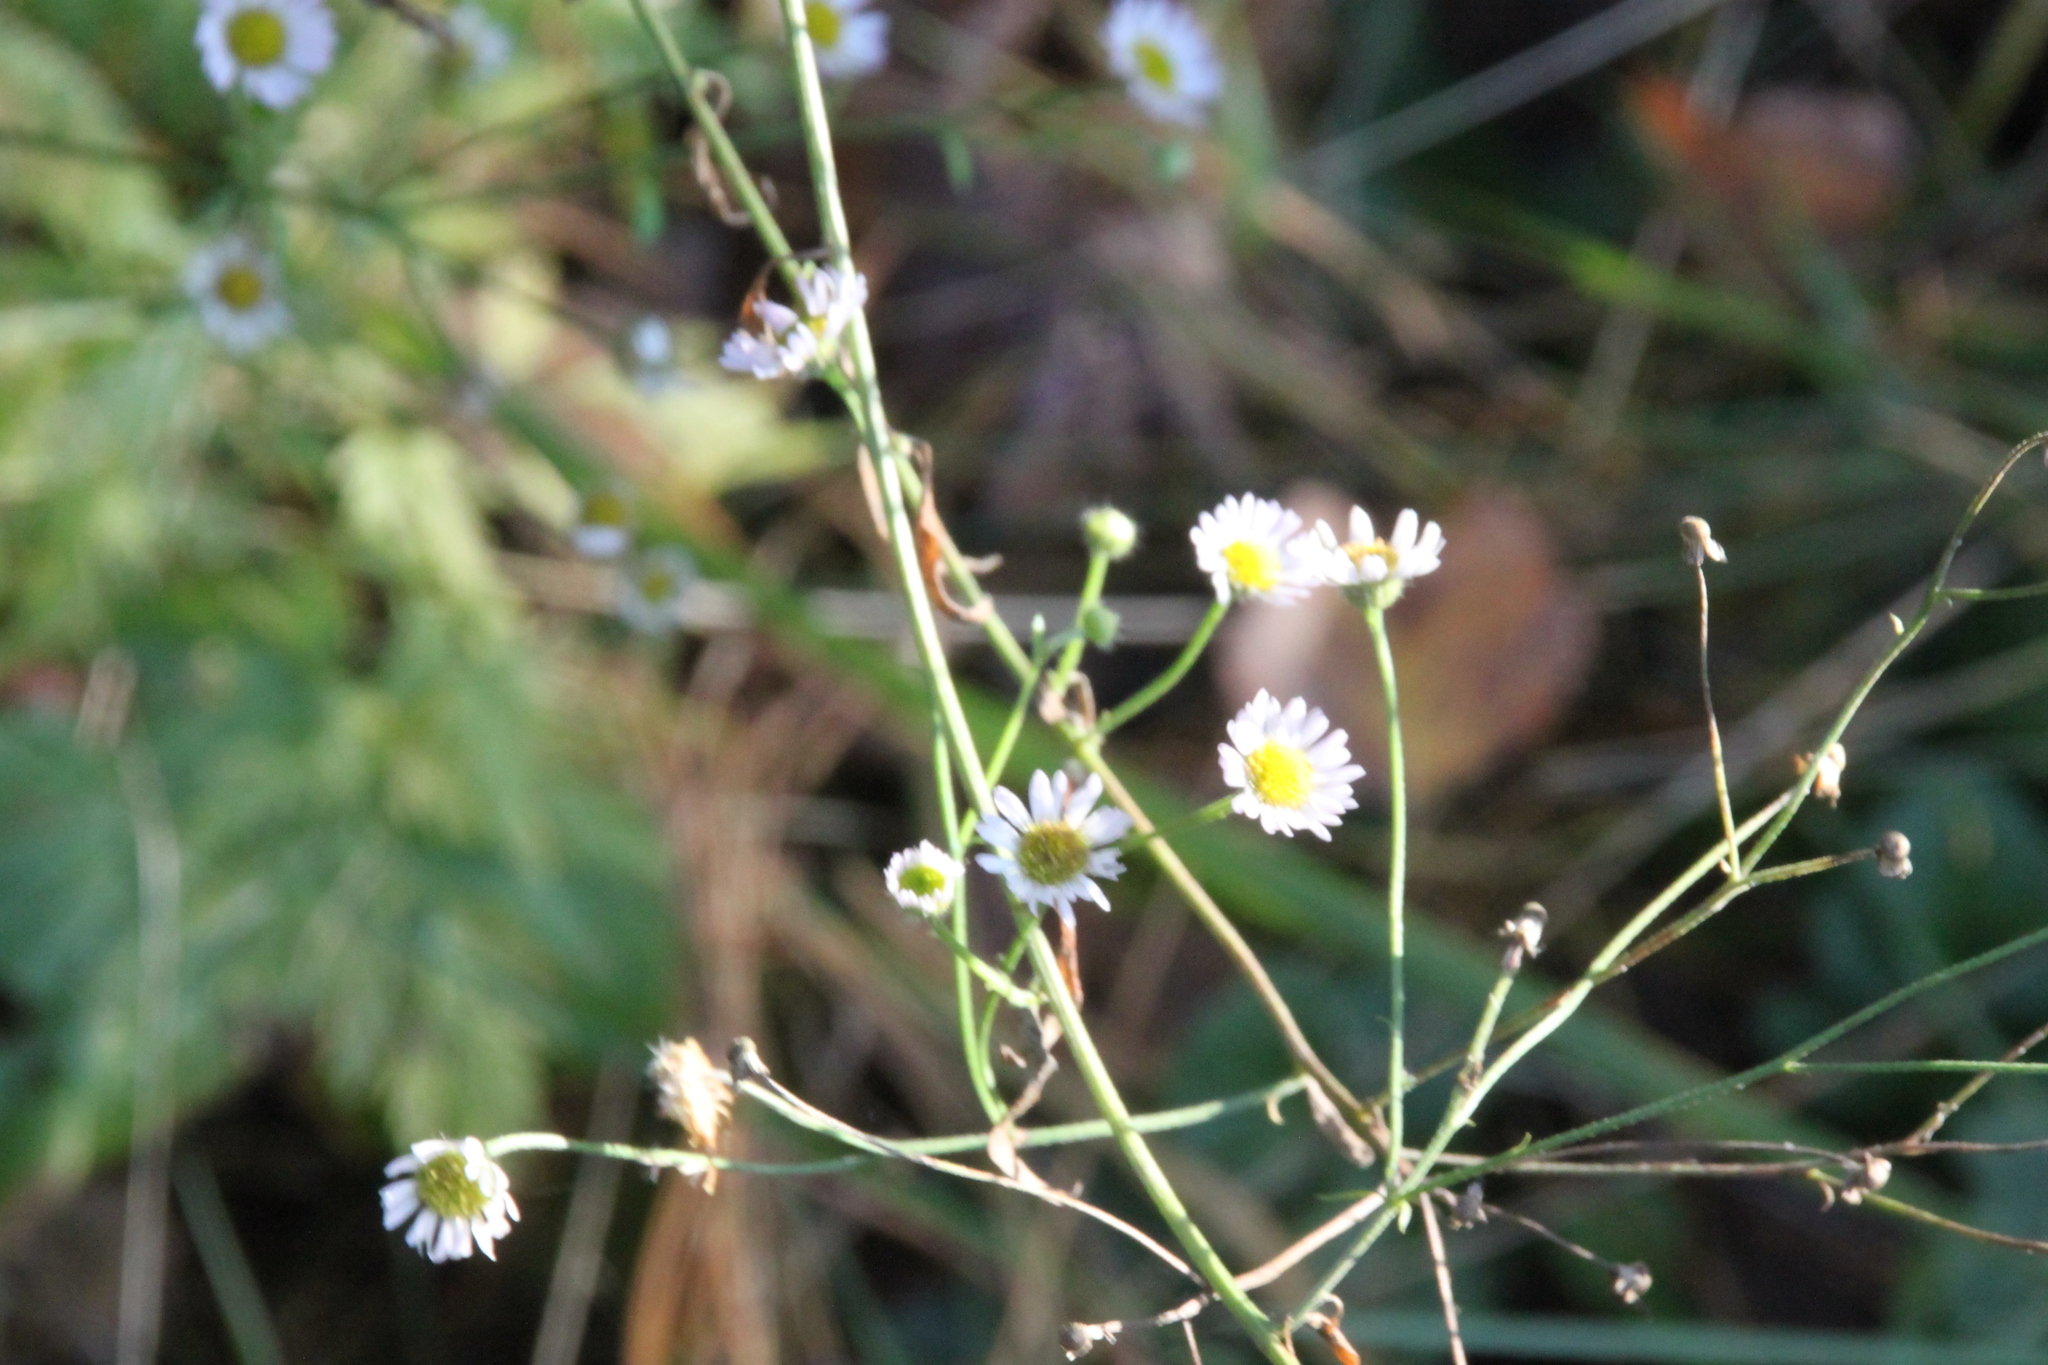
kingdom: Plantae
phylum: Tracheophyta
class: Magnoliopsida
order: Asterales
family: Asteraceae
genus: Erigeron
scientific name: Erigeron annuus
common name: Tall fleabane
